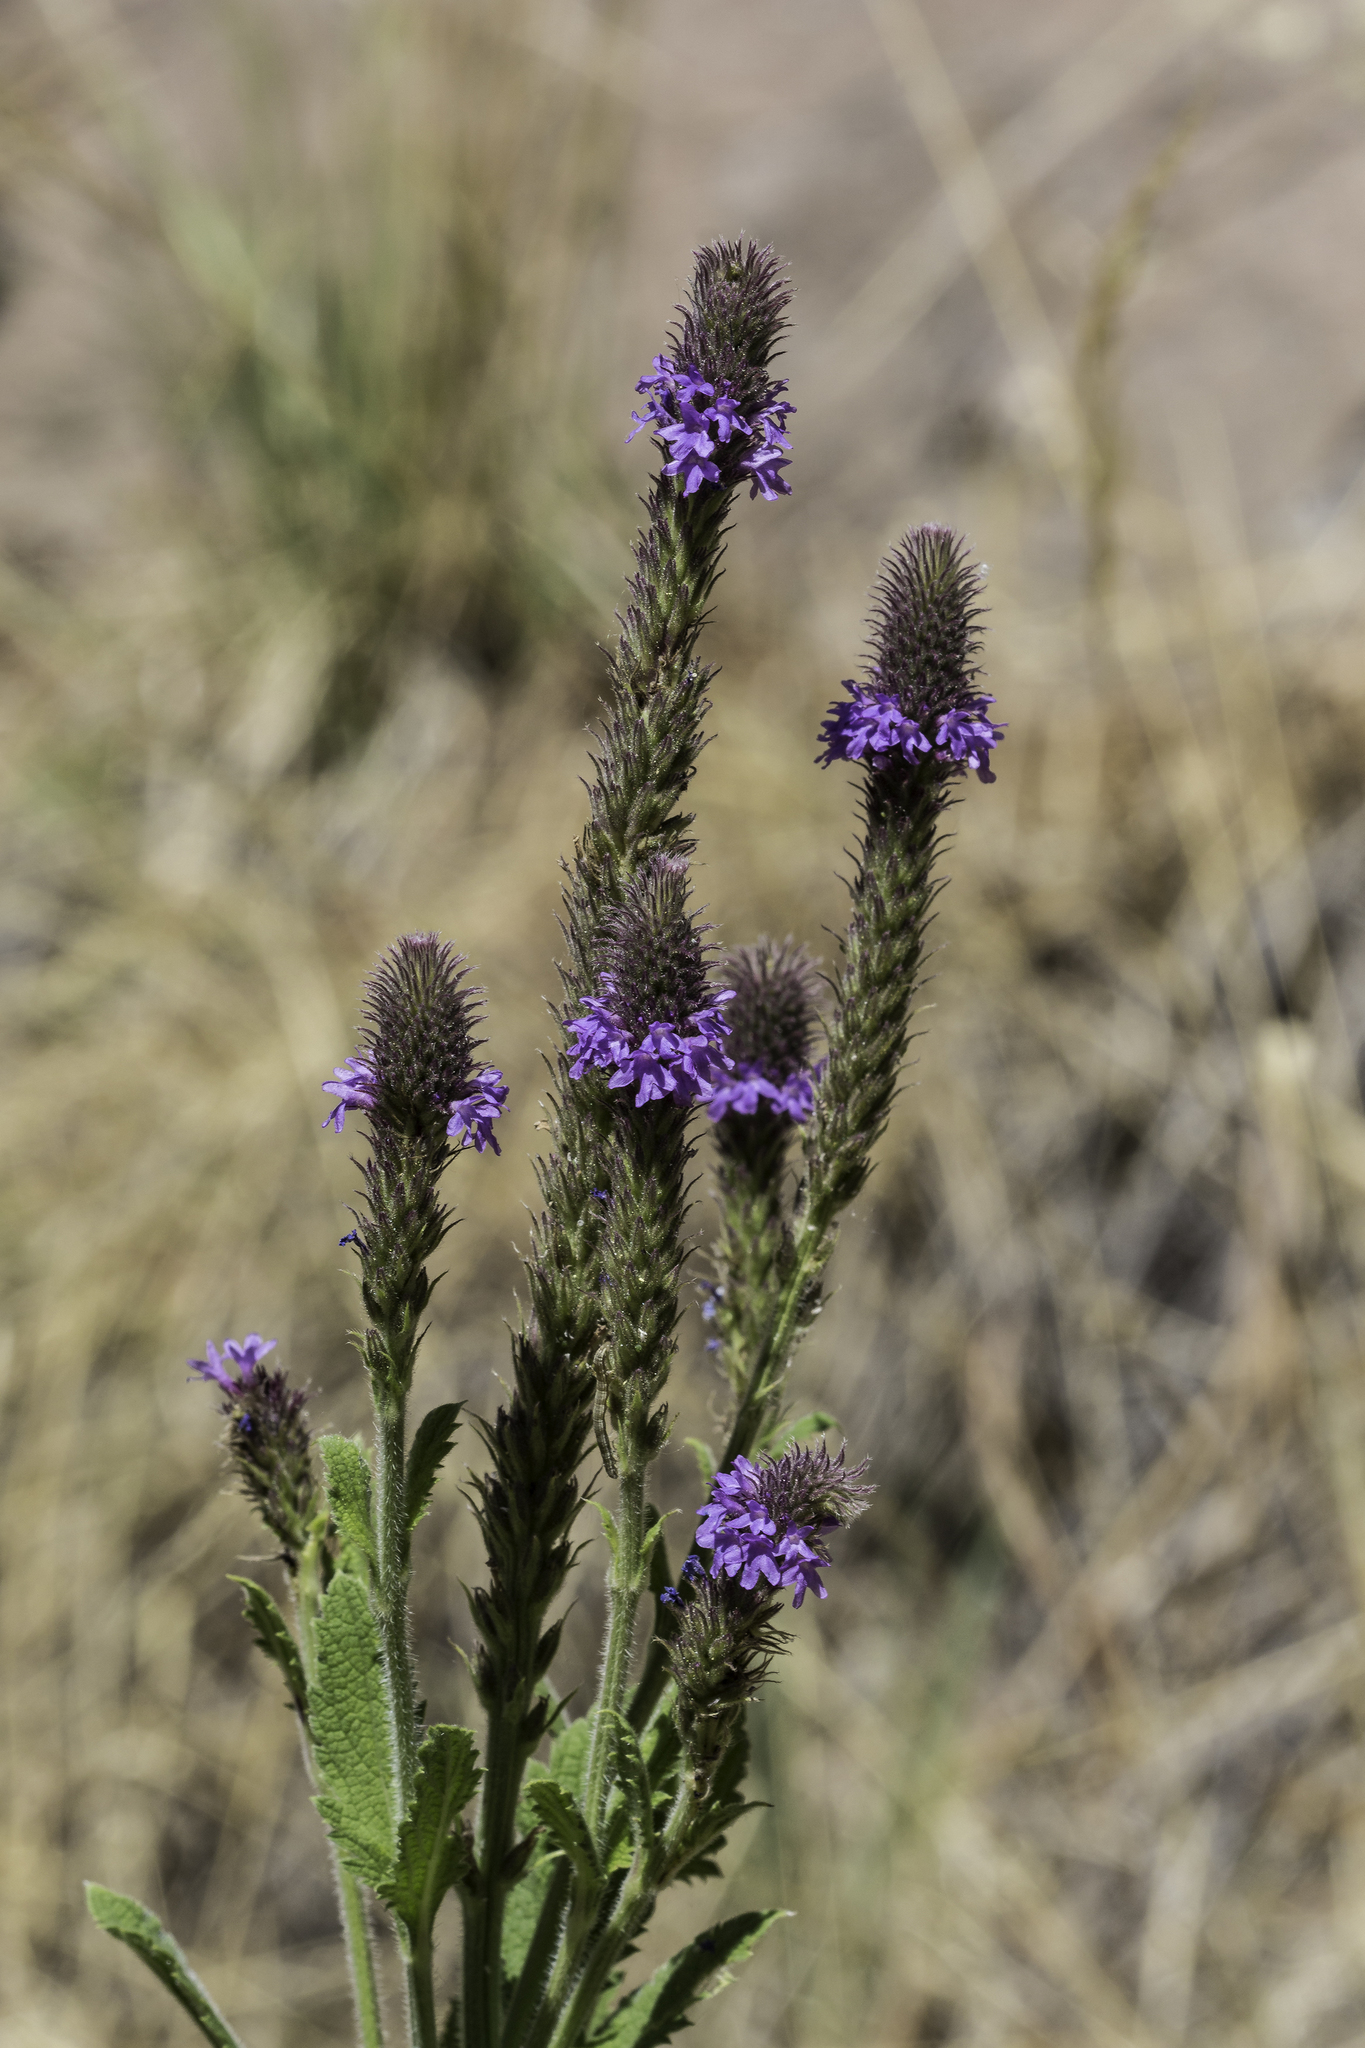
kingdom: Plantae
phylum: Tracheophyta
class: Magnoliopsida
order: Lamiales
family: Verbenaceae
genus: Verbena
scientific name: Verbena macdougalii
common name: New mexico vervain
